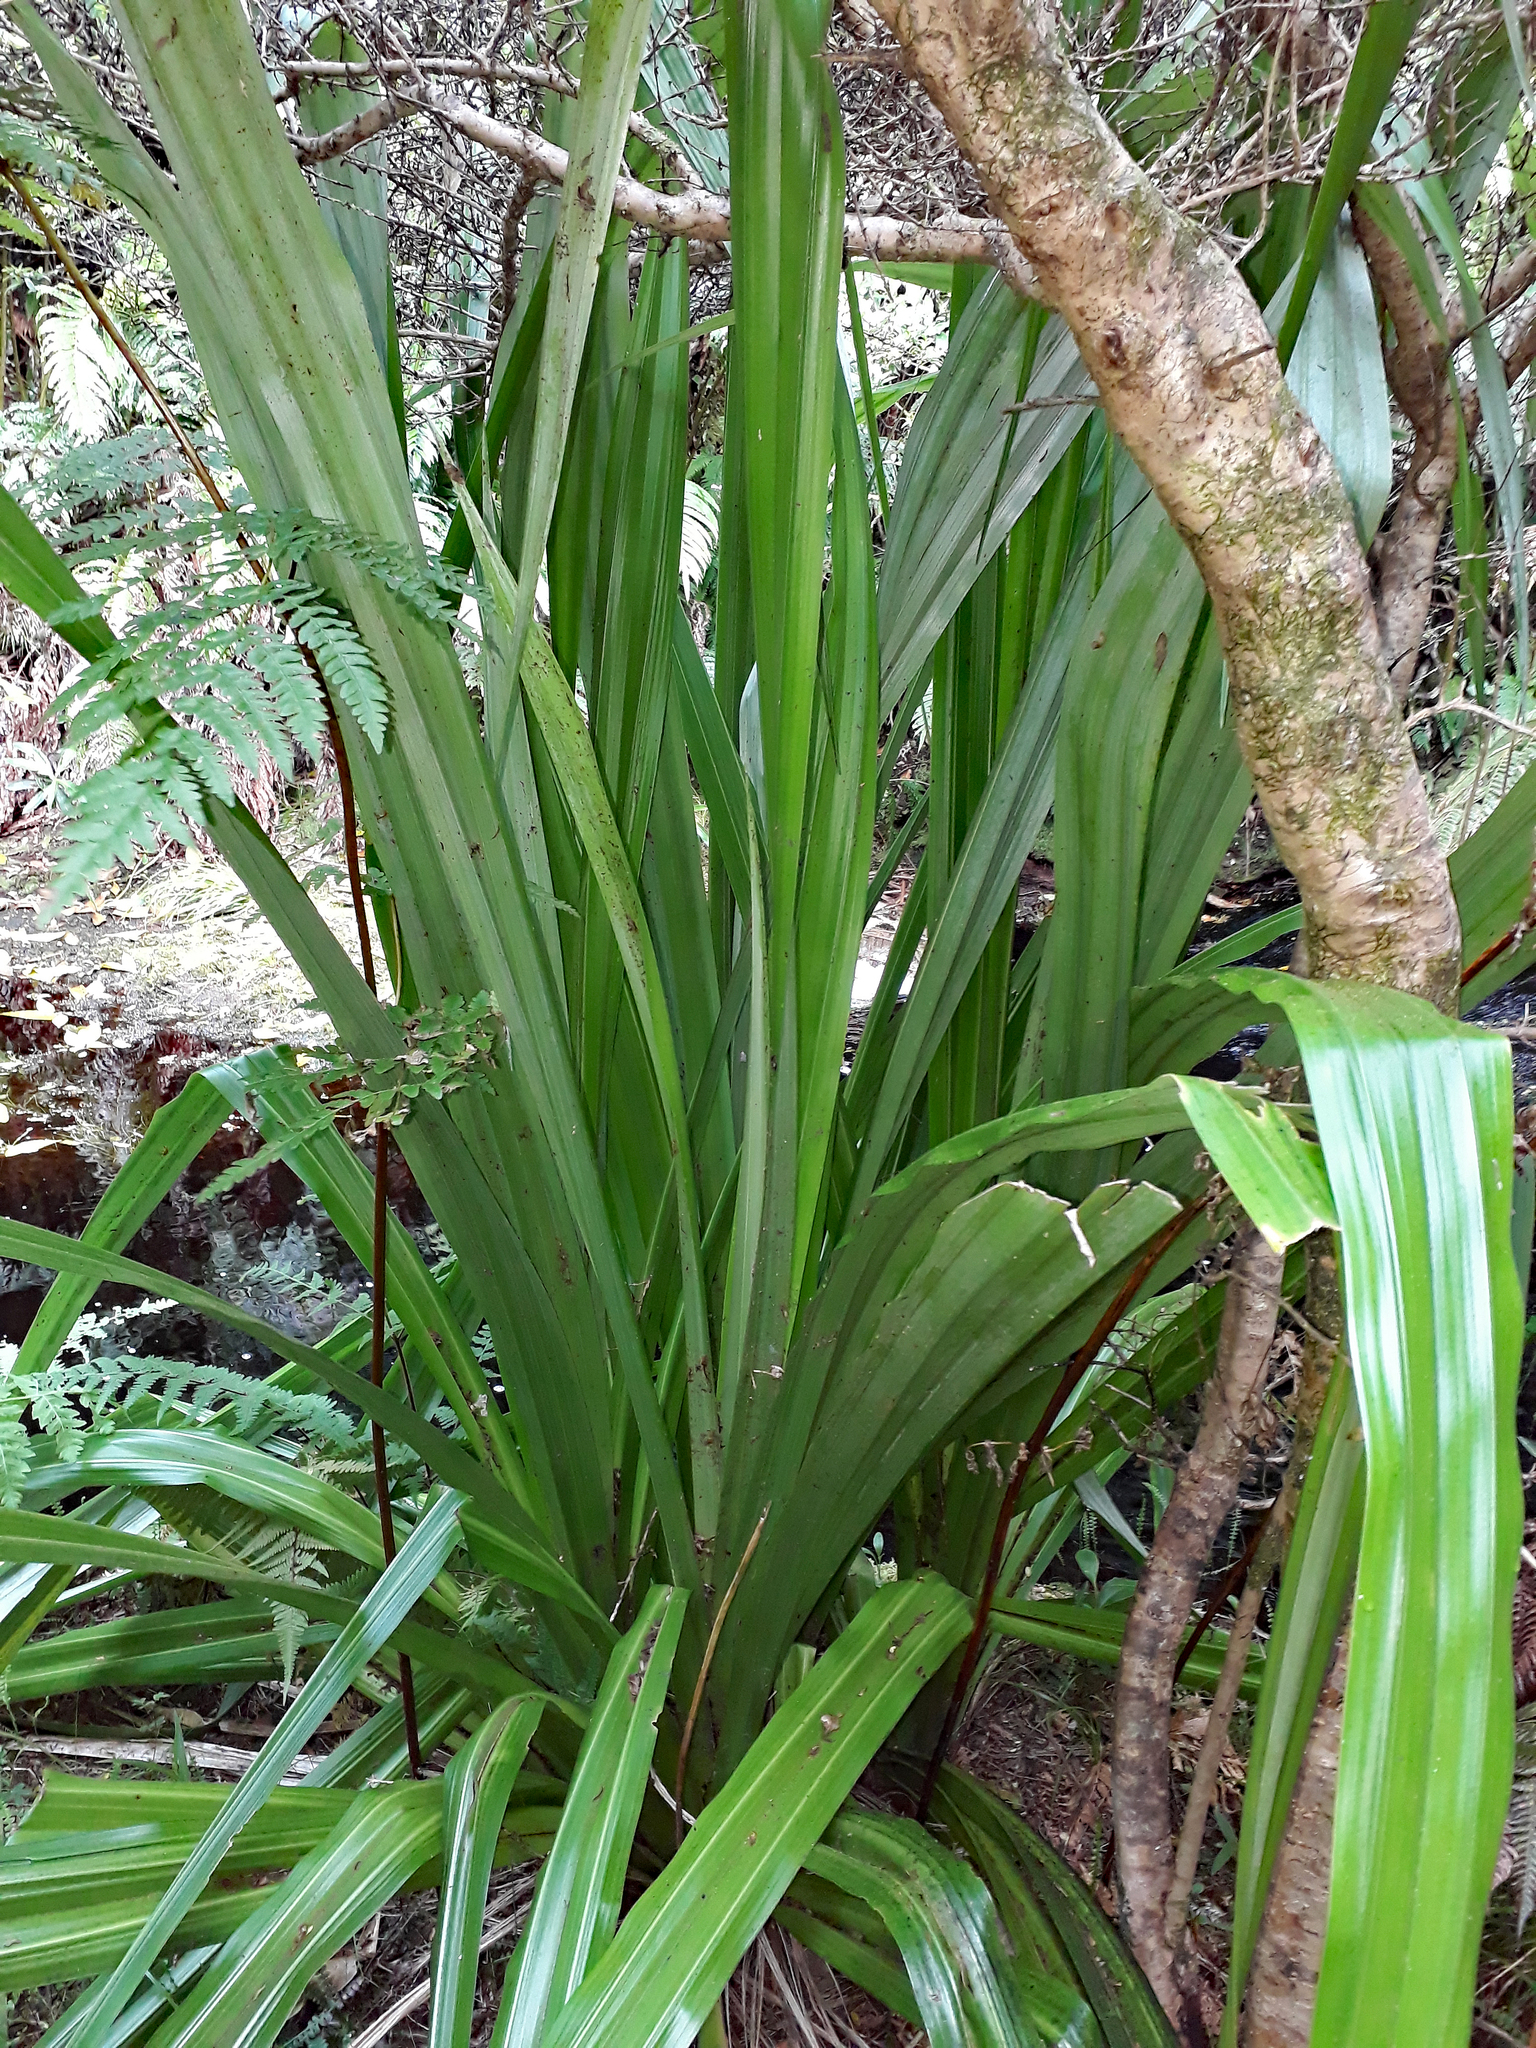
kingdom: Plantae
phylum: Tracheophyta
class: Liliopsida
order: Asparagales
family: Asteliaceae
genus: Astelia
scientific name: Astelia chathamica
